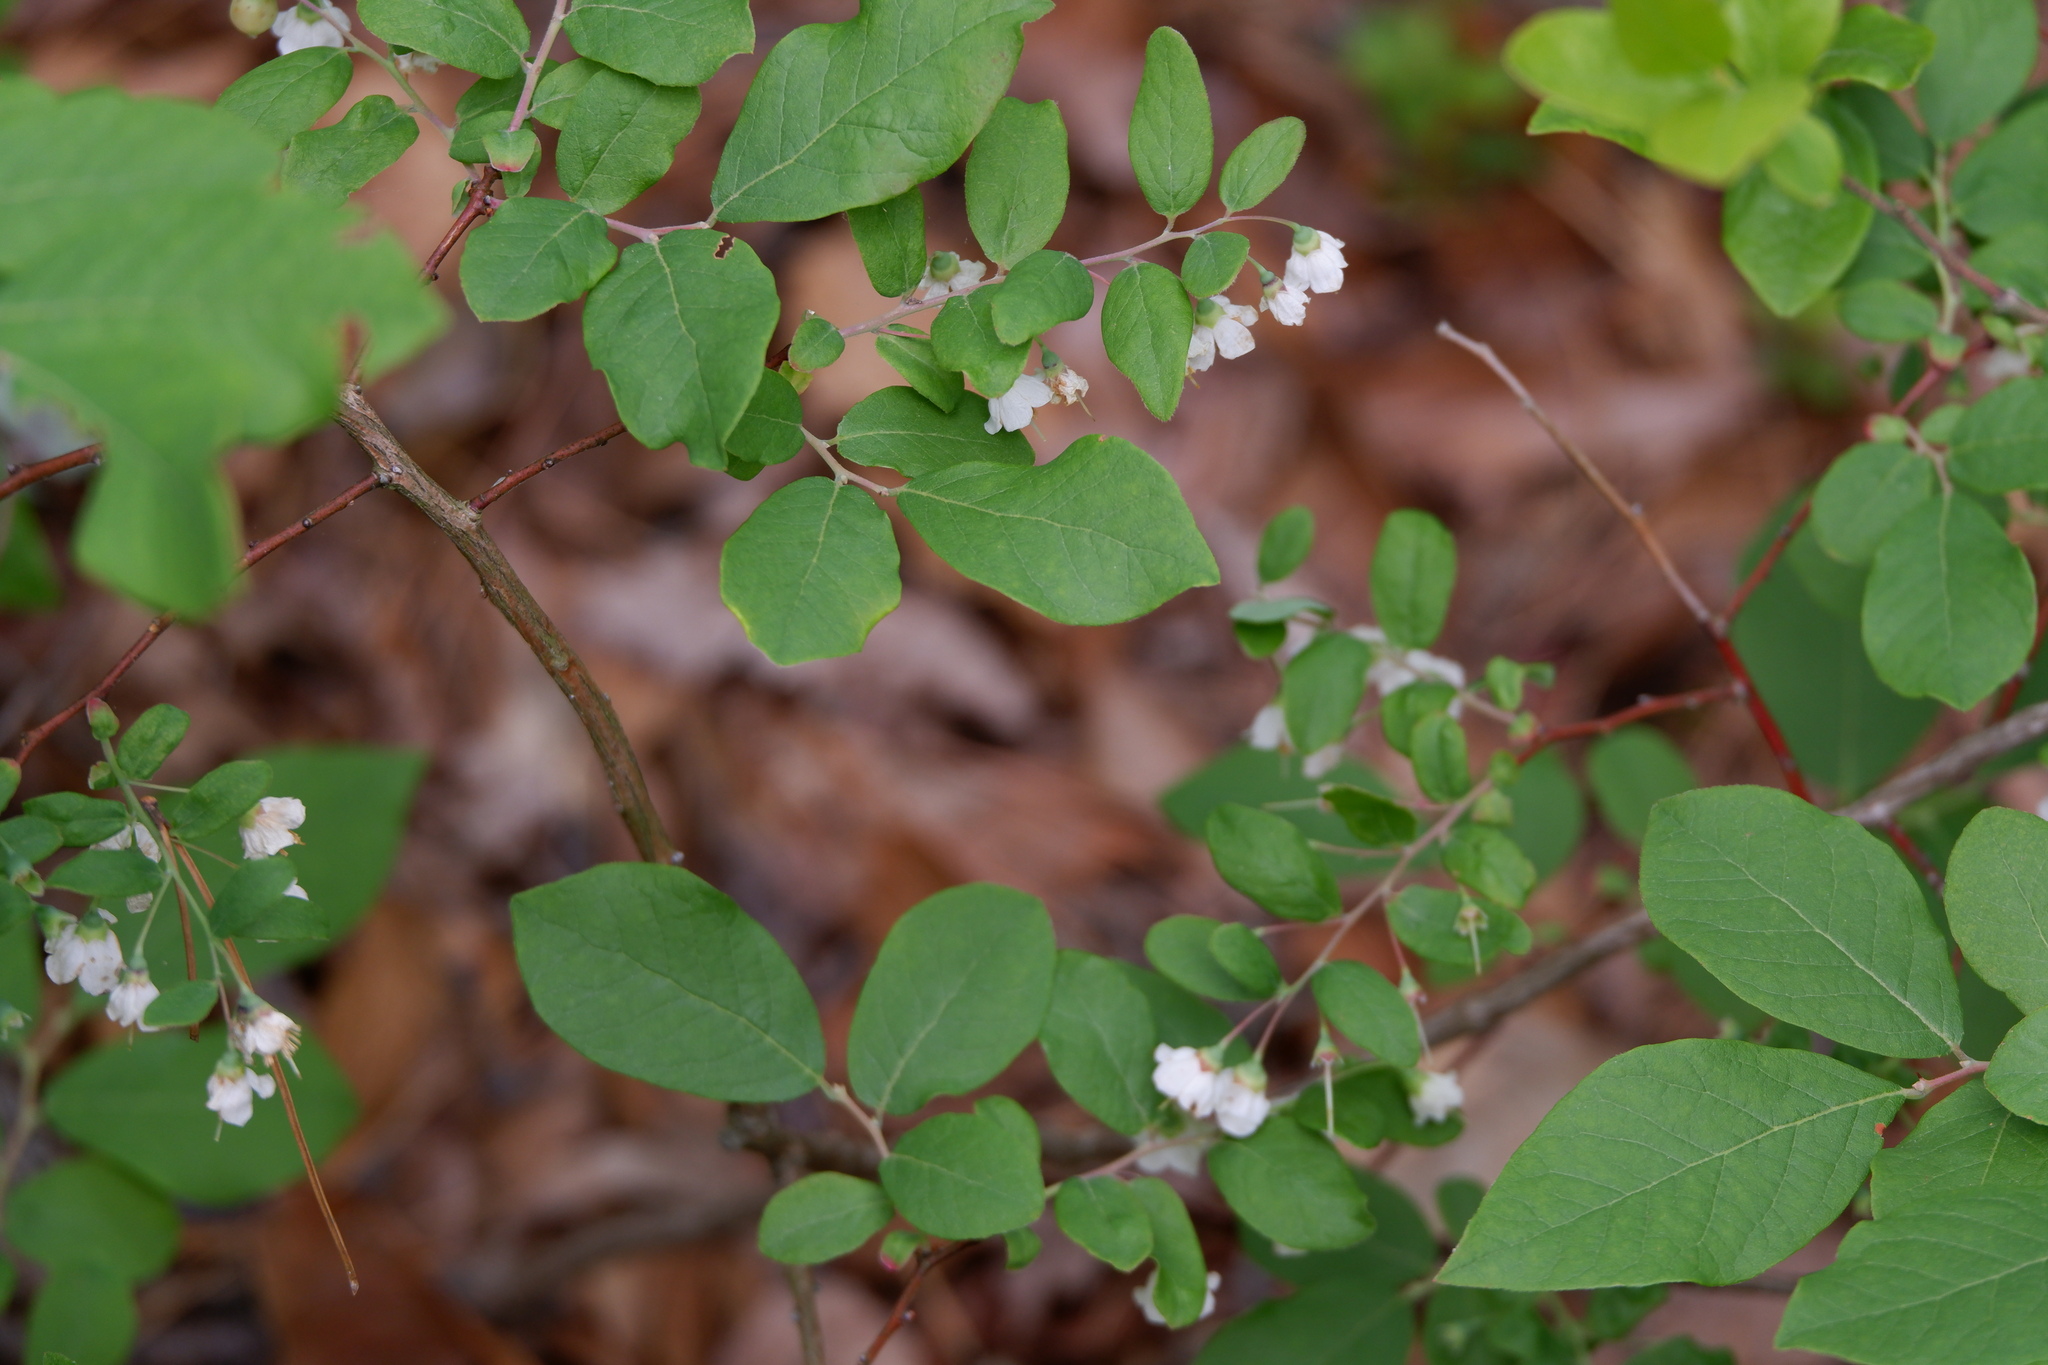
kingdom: Plantae
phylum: Tracheophyta
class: Magnoliopsida
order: Ericales
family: Ericaceae
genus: Vaccinium
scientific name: Vaccinium stamineum
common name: Deerberry
